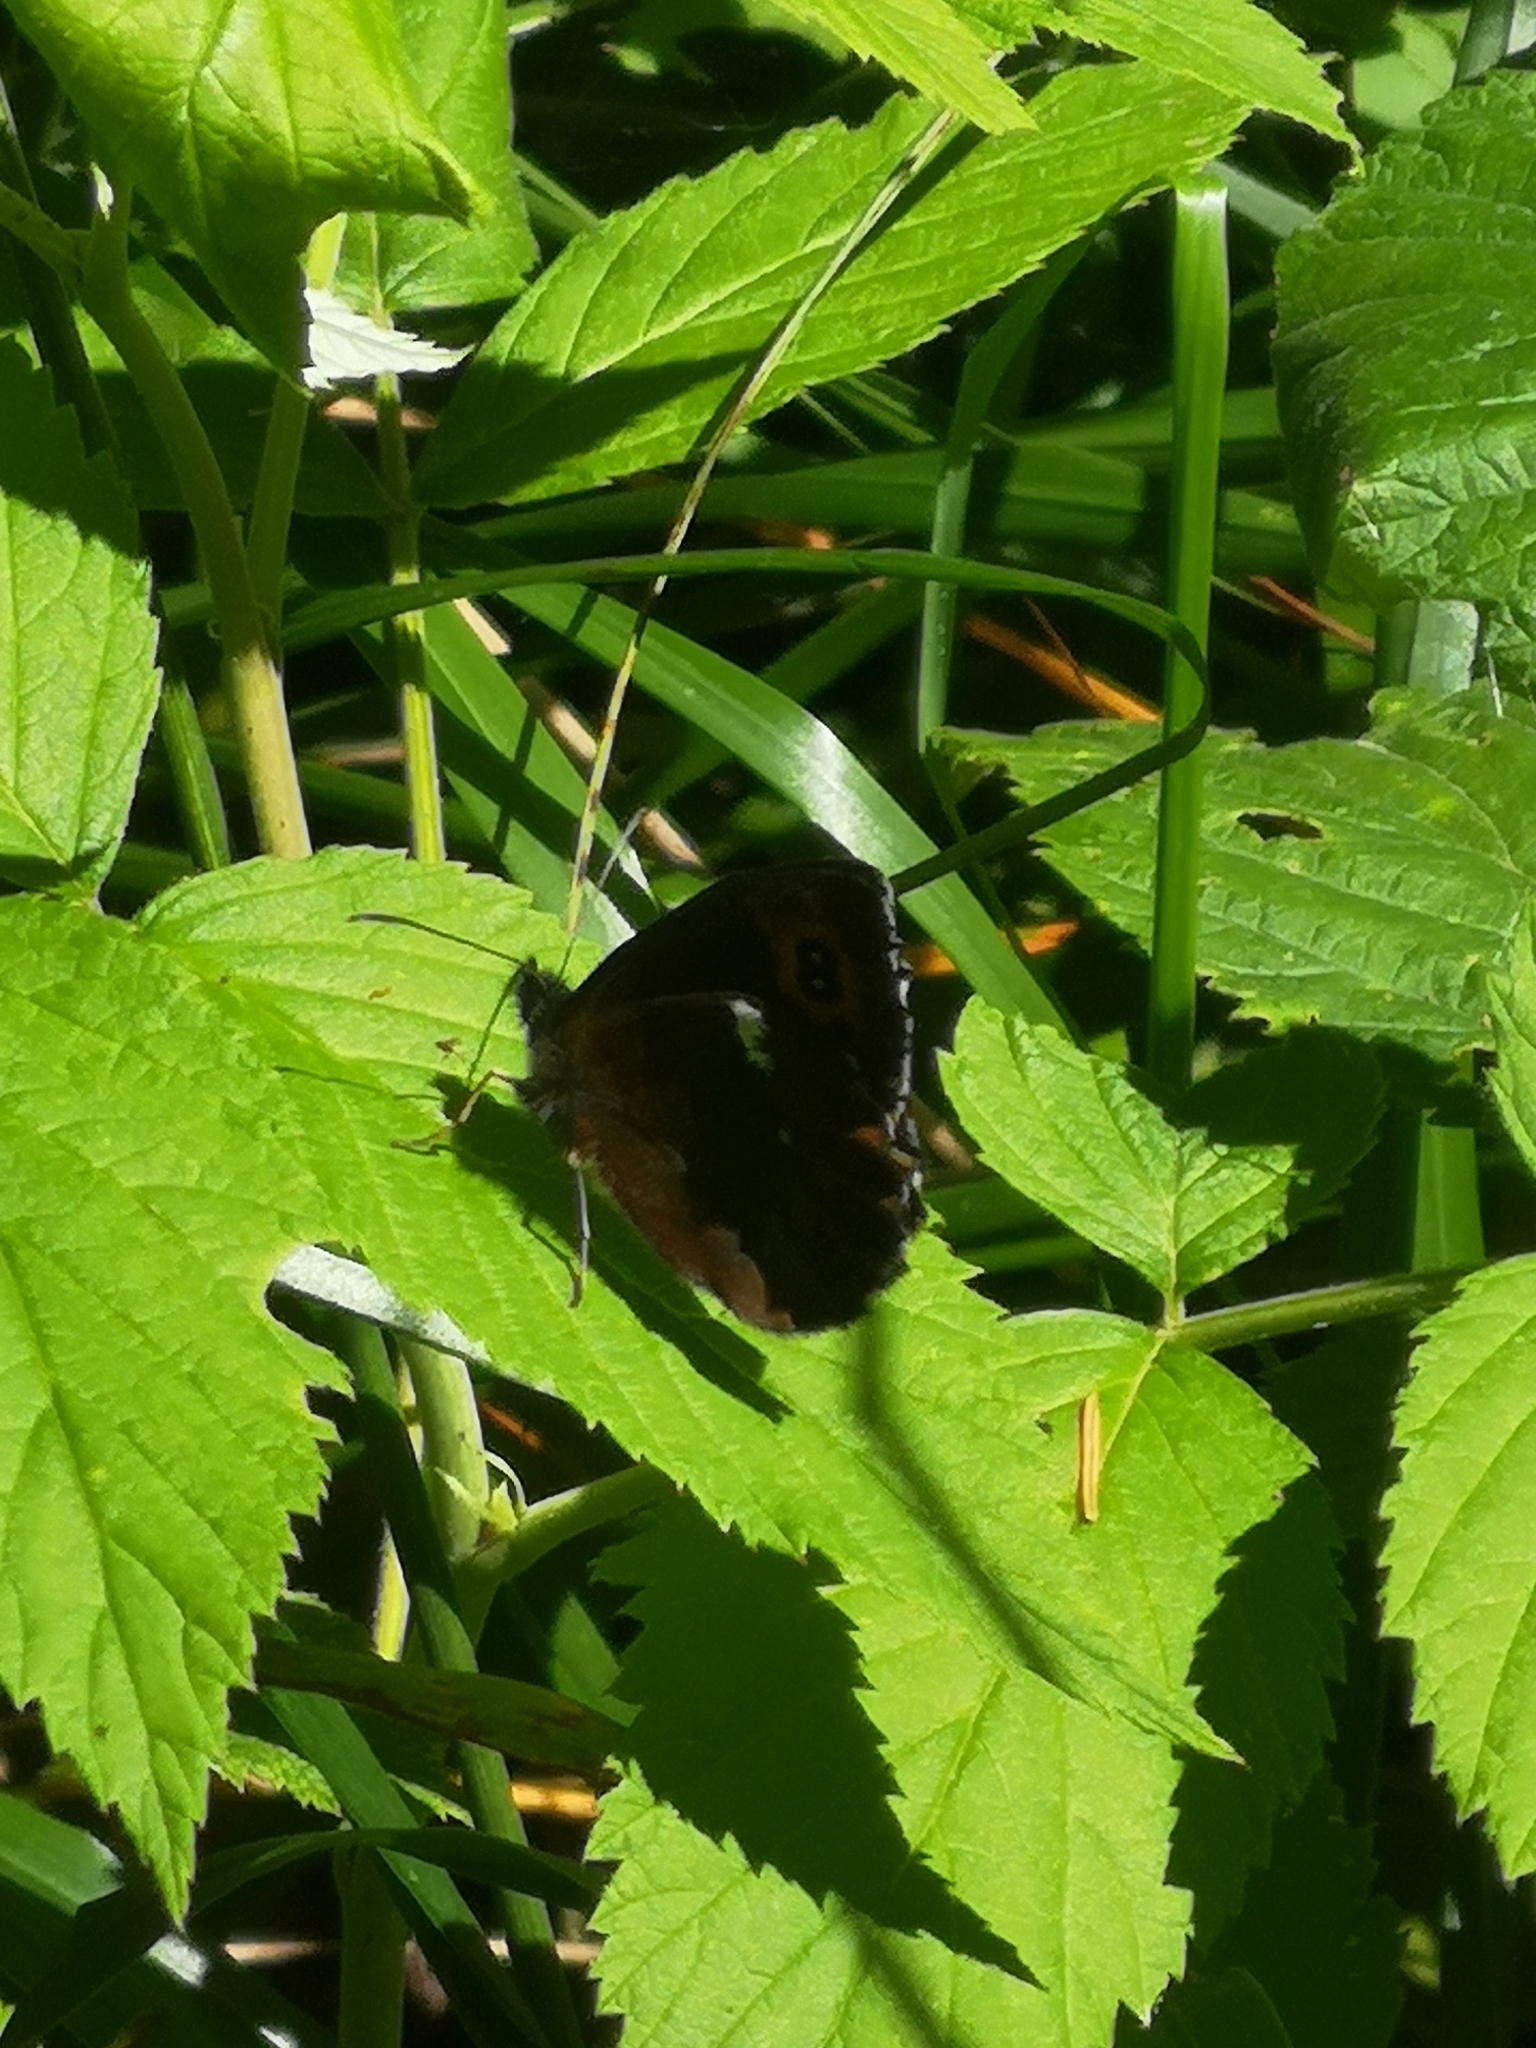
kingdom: Animalia
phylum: Arthropoda
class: Insecta
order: Lepidoptera
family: Nymphalidae
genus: Erebia
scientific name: Erebia ligea
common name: Arran brown
